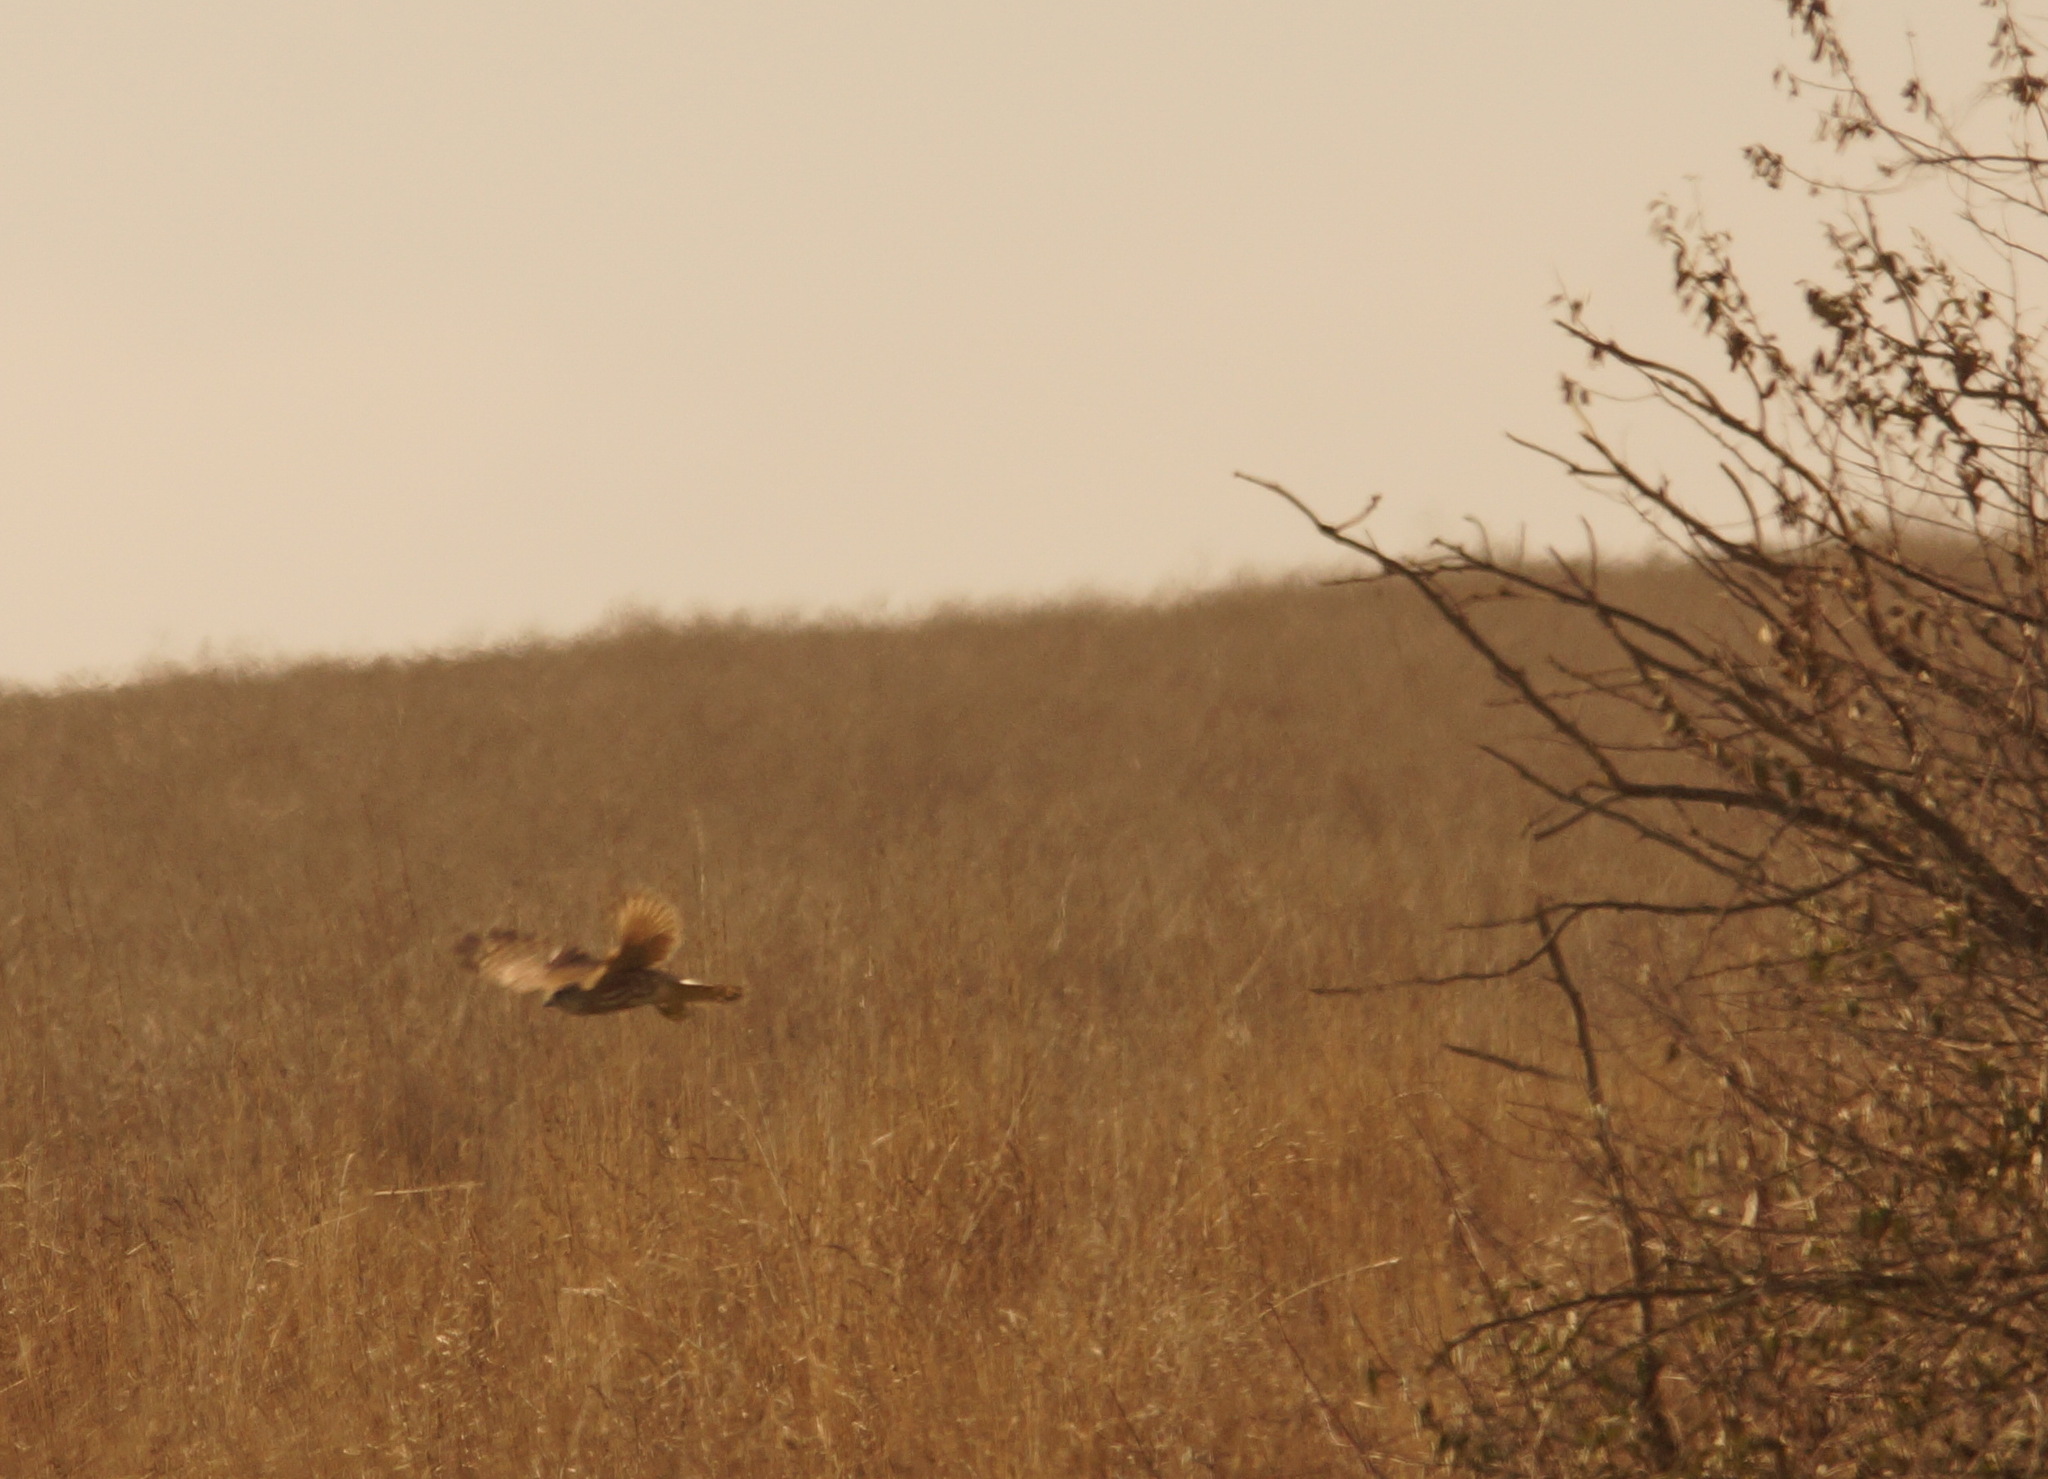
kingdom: Animalia
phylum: Chordata
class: Aves
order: Falconiformes
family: Falconidae
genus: Falco
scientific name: Falco columbarius
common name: Merlin
